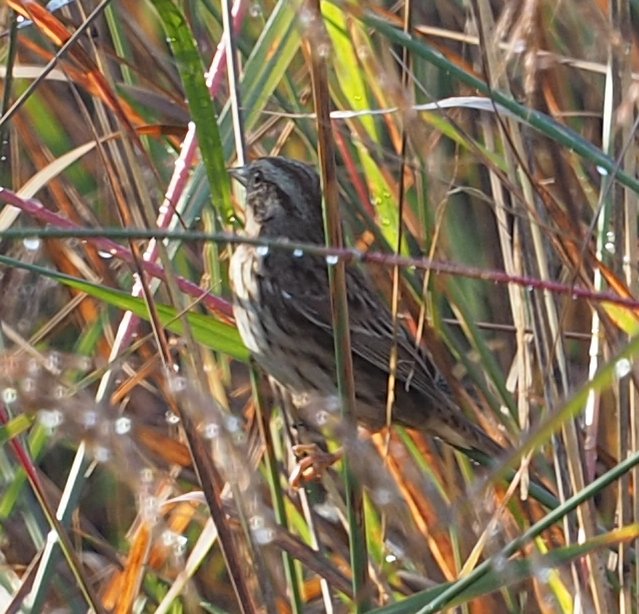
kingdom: Animalia
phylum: Chordata
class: Aves
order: Passeriformes
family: Passerellidae
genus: Melospiza
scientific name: Melospiza melodia
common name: Song sparrow
